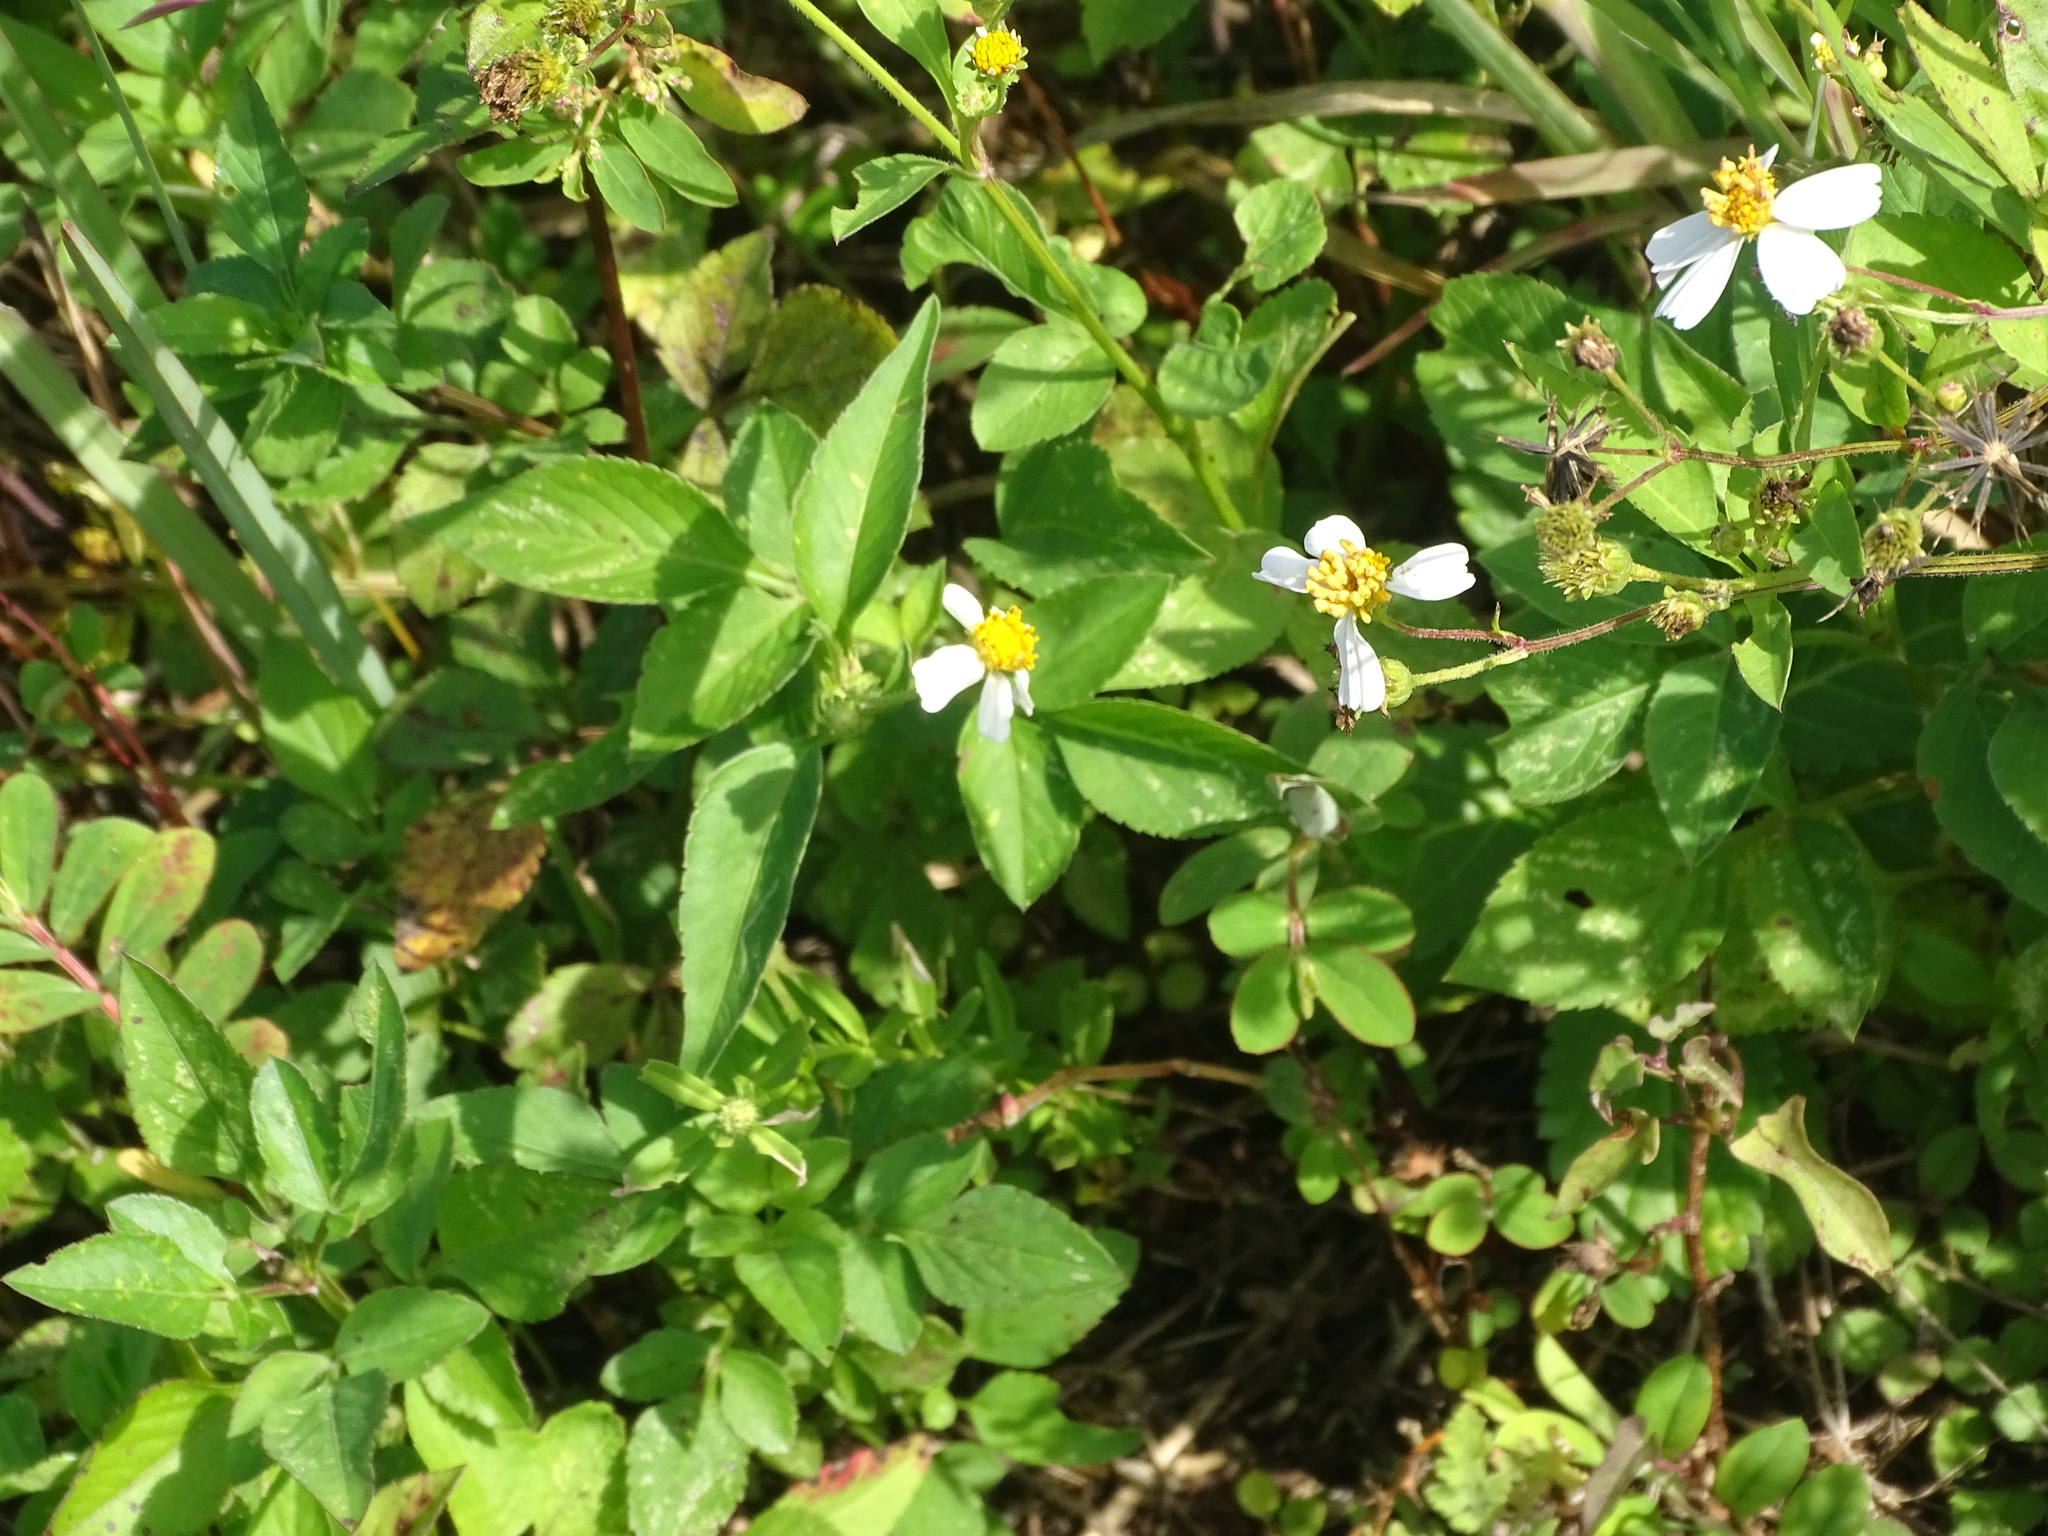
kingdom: Plantae
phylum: Tracheophyta
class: Magnoliopsida
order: Asterales
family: Asteraceae
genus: Bidens
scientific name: Bidens alba
